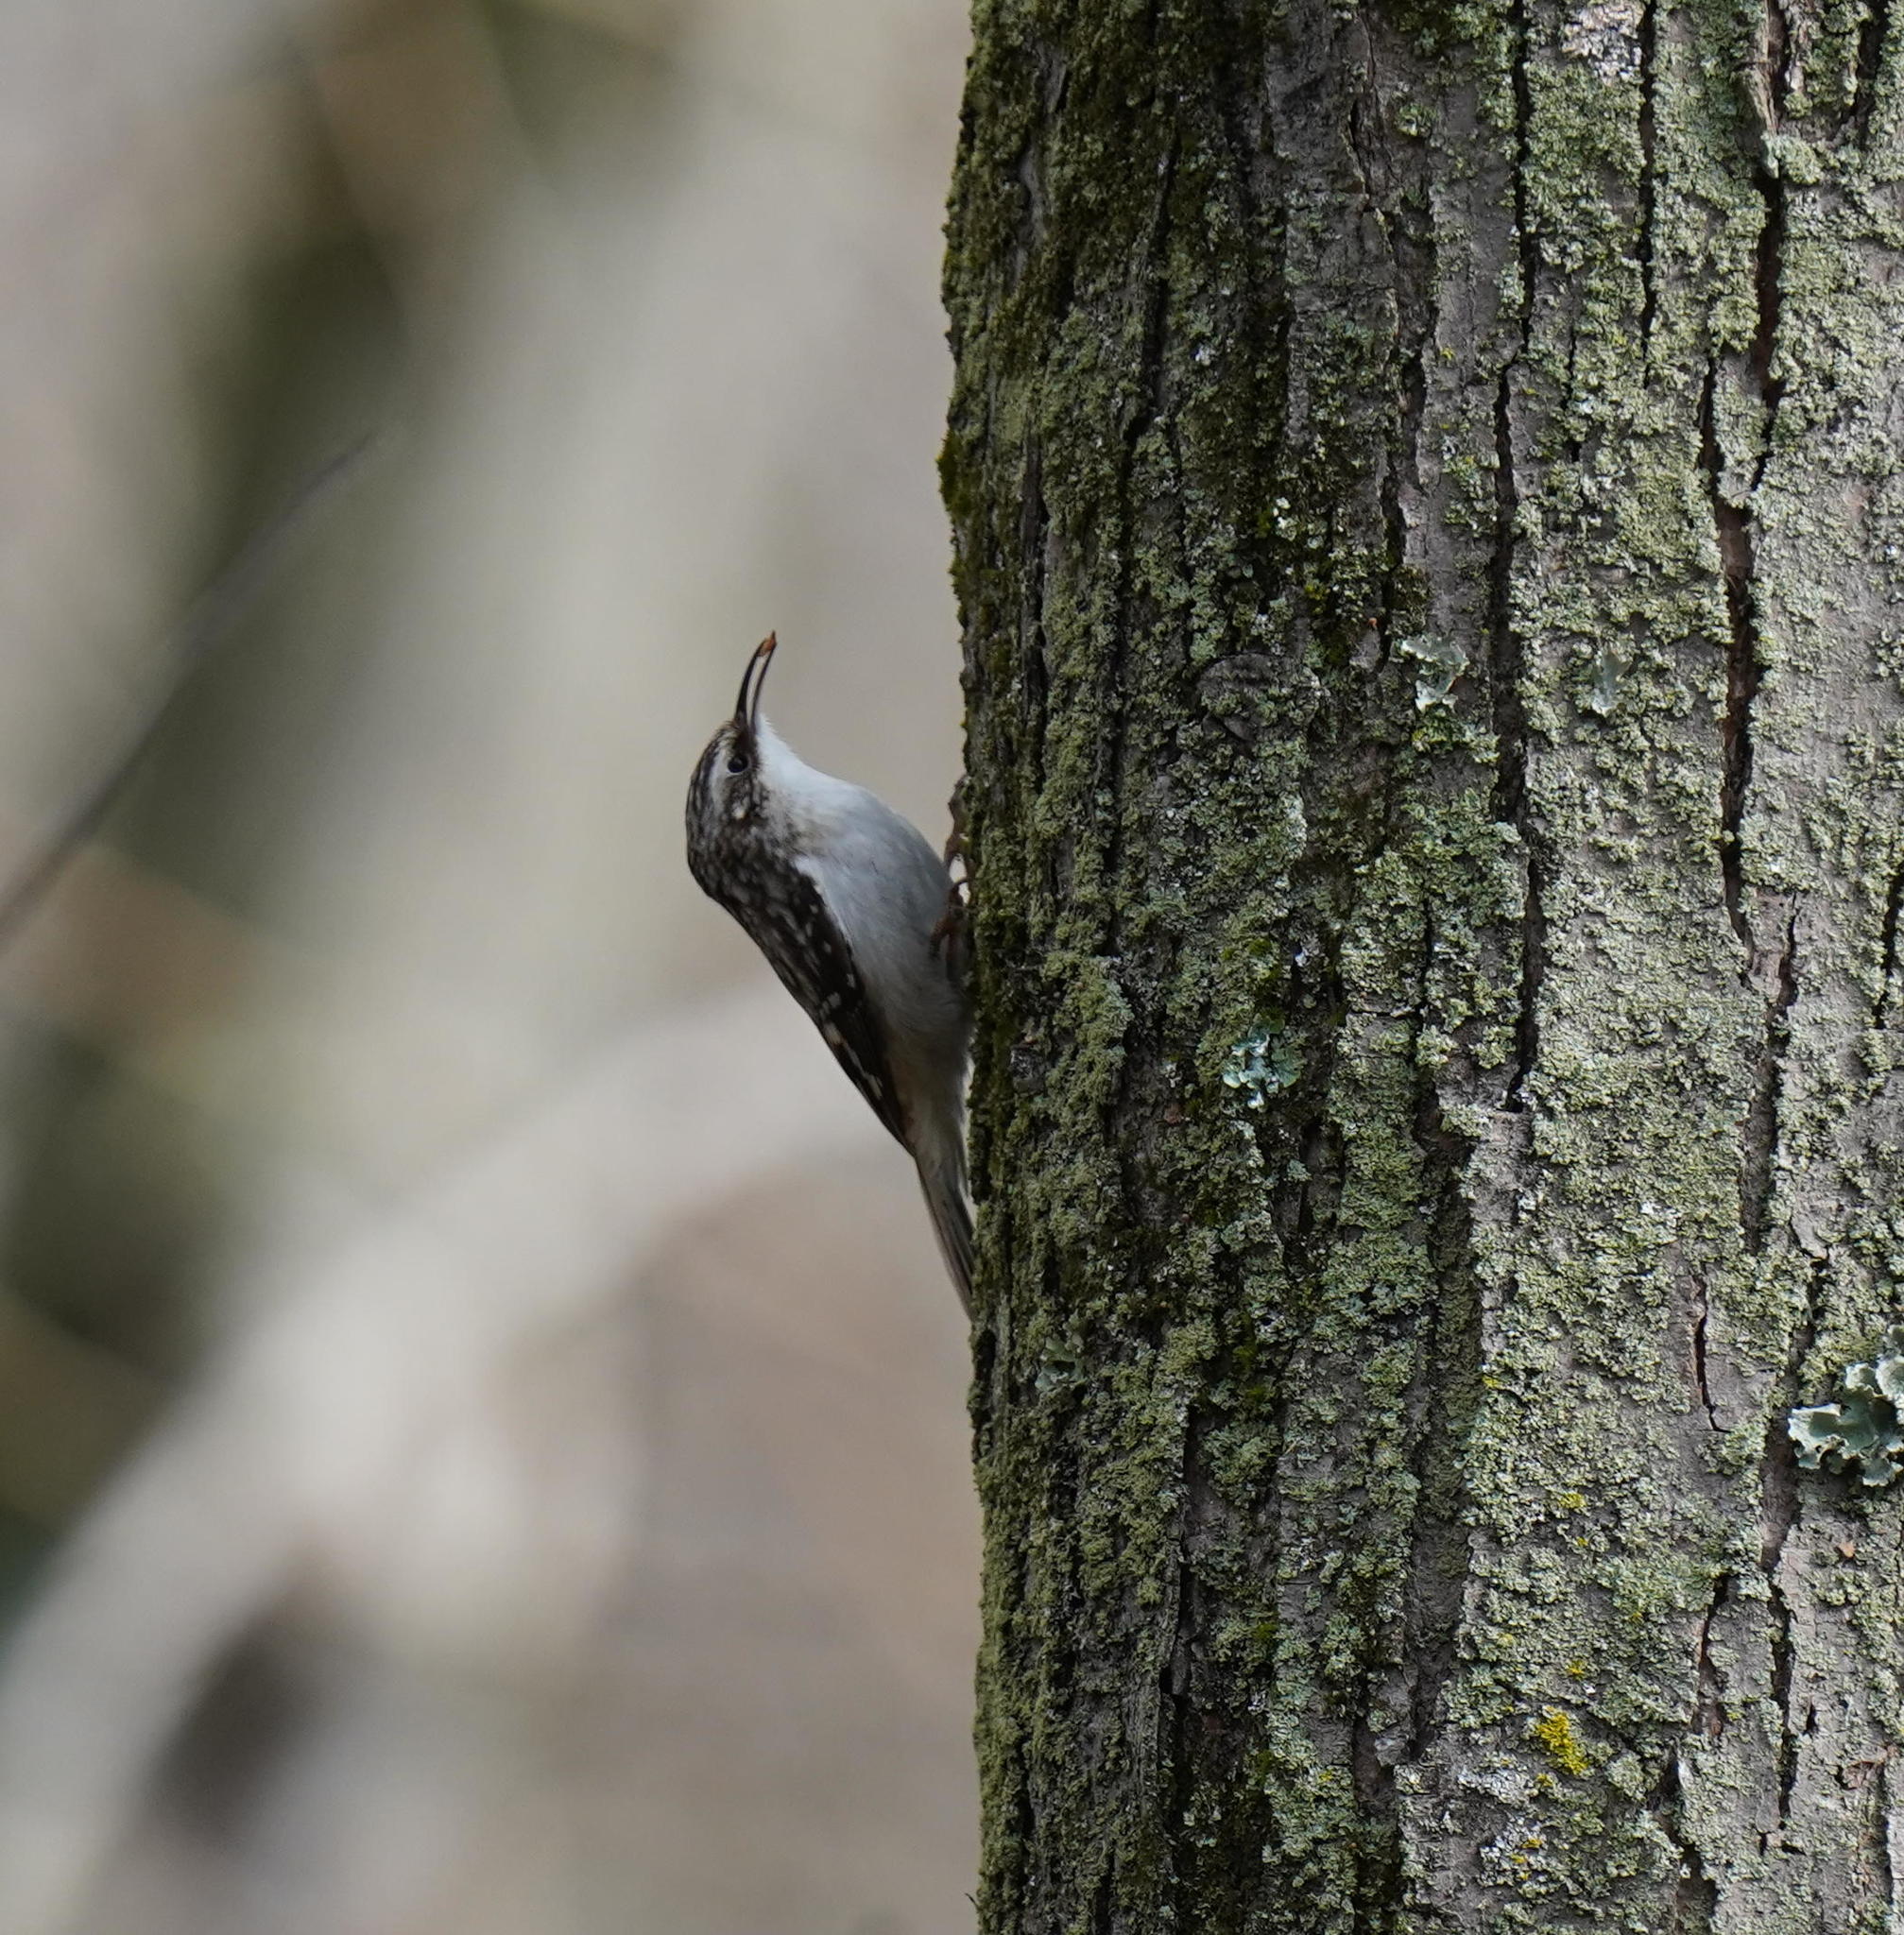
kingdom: Animalia
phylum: Chordata
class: Aves
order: Passeriformes
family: Certhiidae
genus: Certhia
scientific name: Certhia americana
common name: Brown creeper
